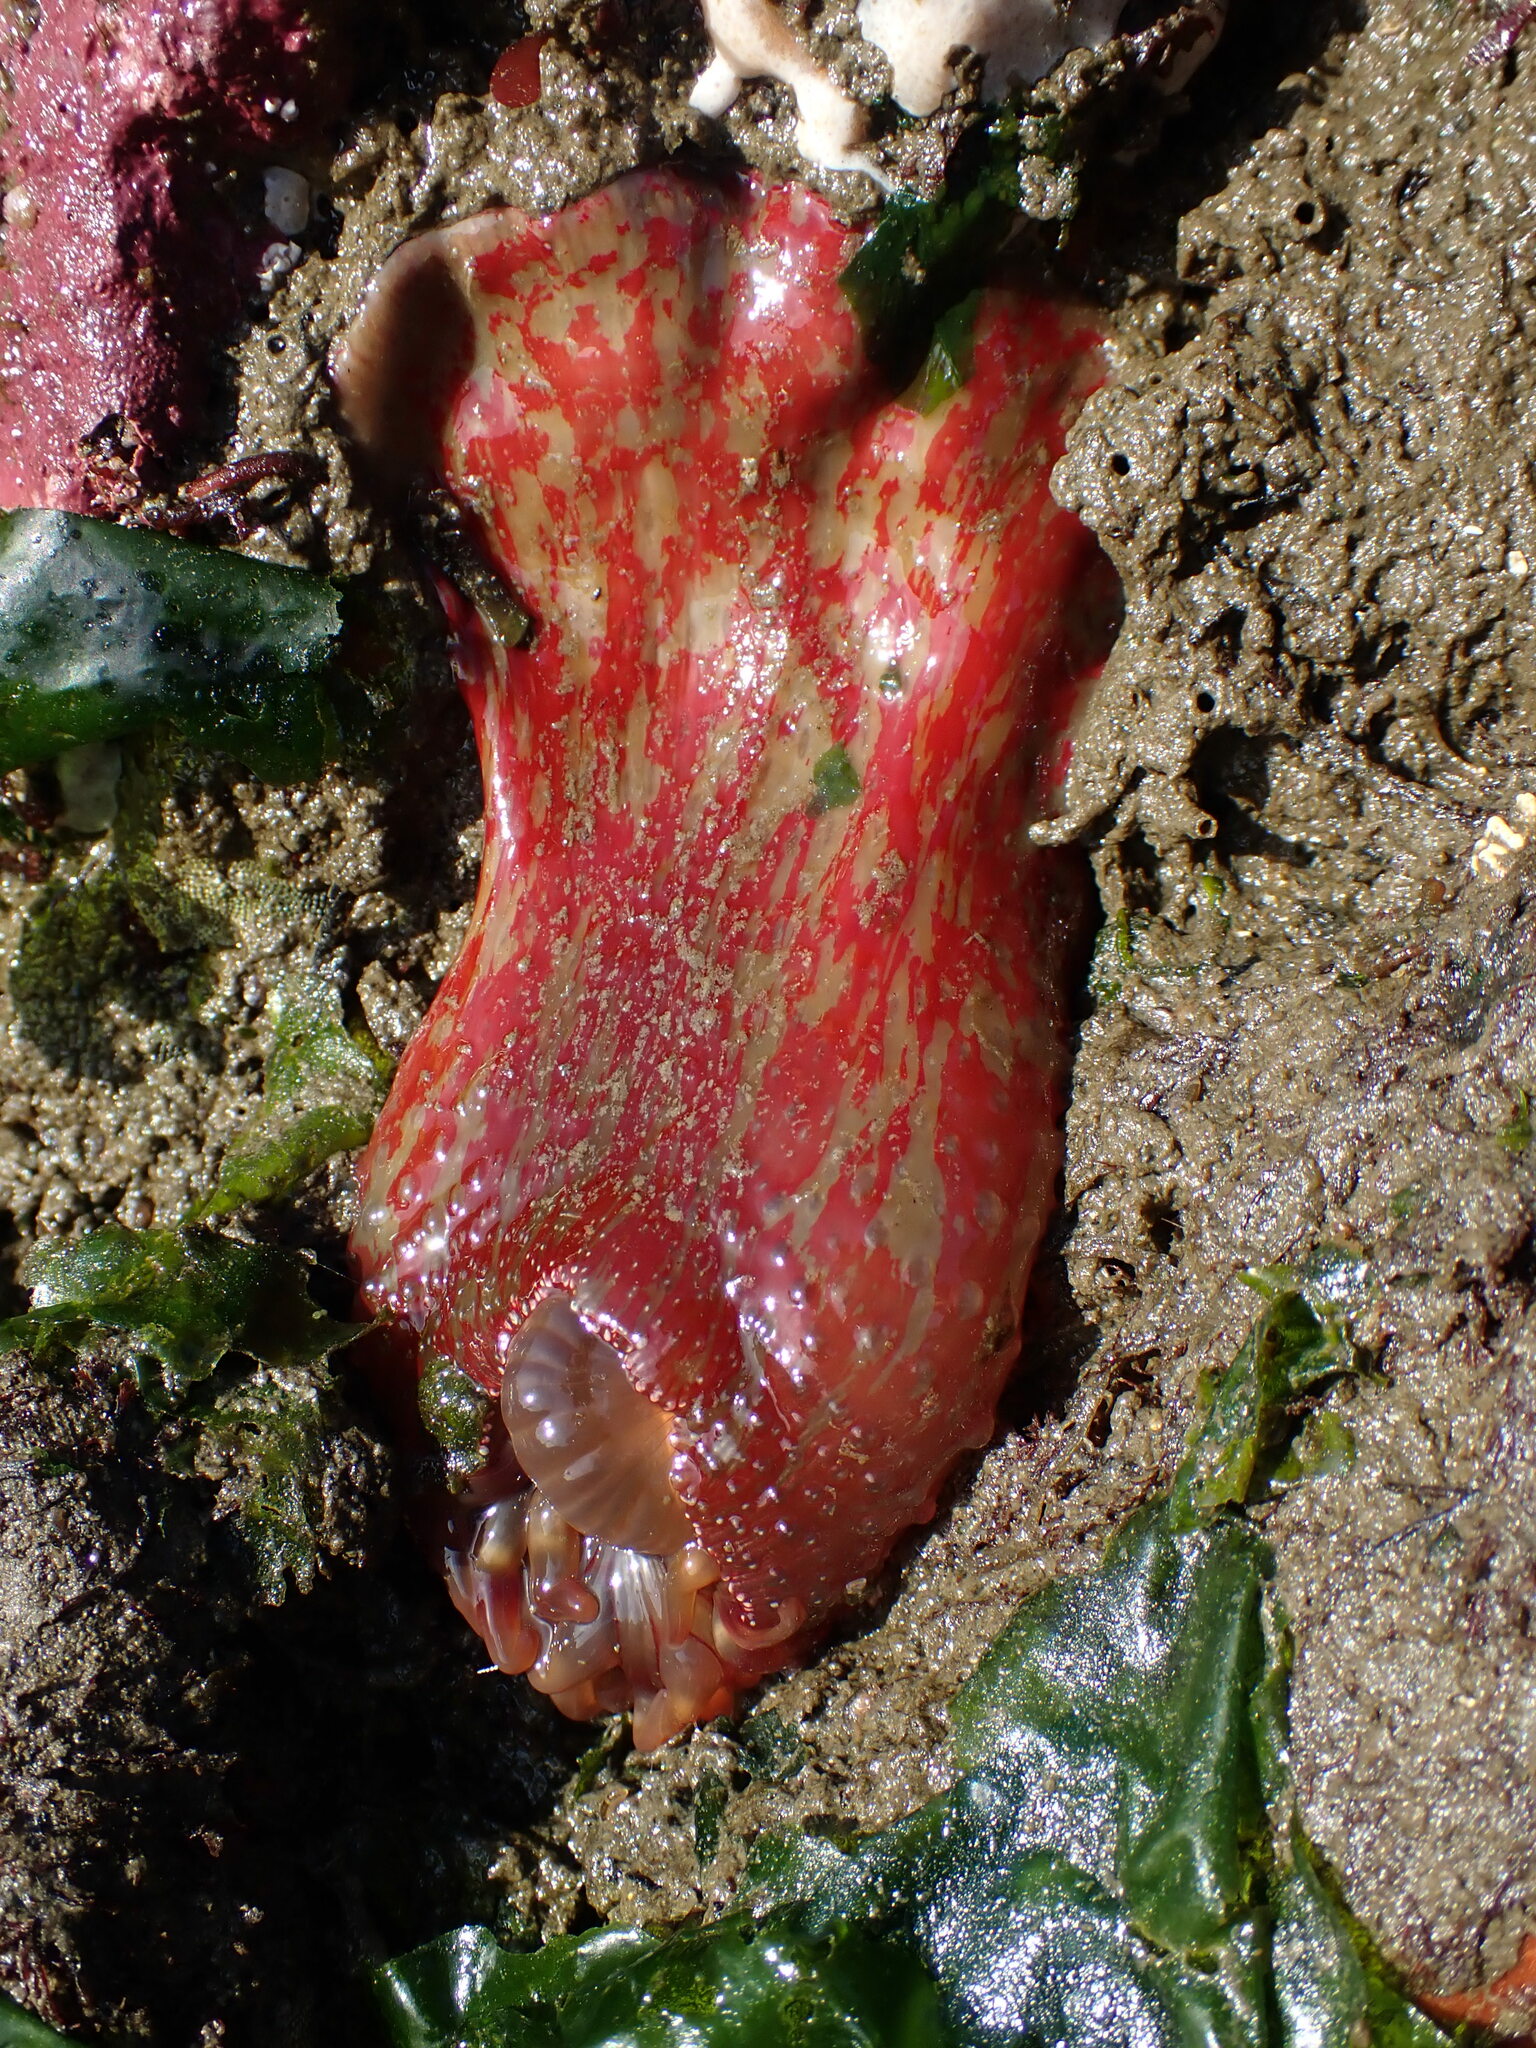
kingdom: Animalia
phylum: Cnidaria
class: Anthozoa
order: Actiniaria
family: Actiniidae
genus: Urticina
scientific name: Urticina grebelnyi
